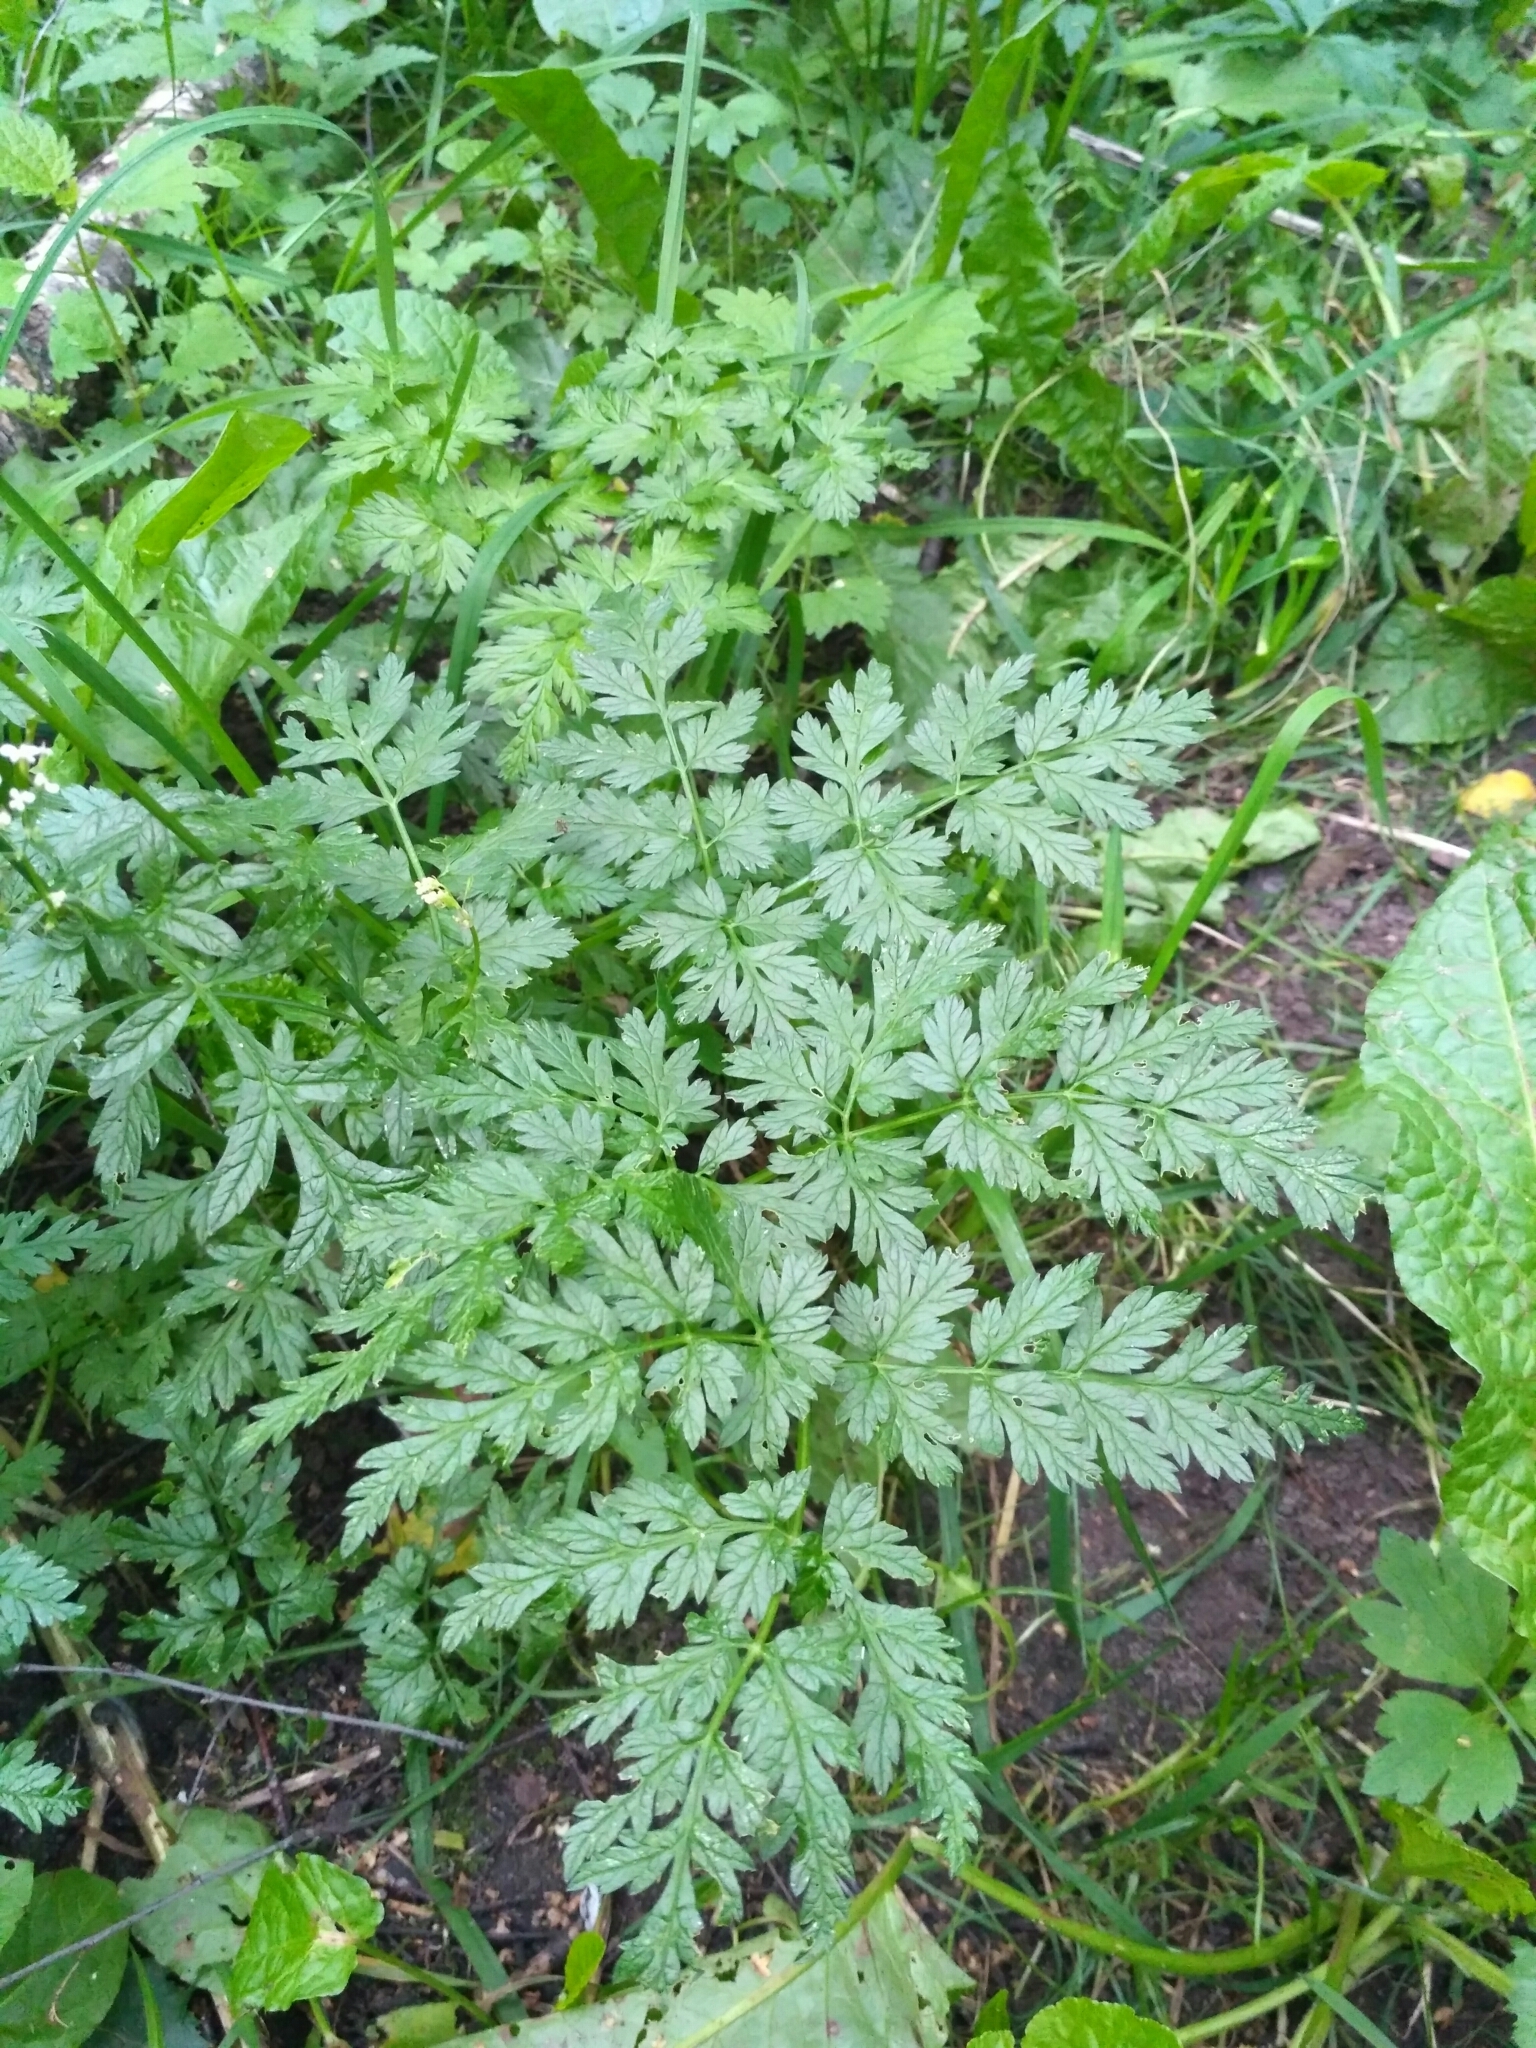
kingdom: Plantae
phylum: Tracheophyta
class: Magnoliopsida
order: Apiales
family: Apiaceae
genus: Anthriscus
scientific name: Anthriscus sylvestris
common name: Cow parsley
